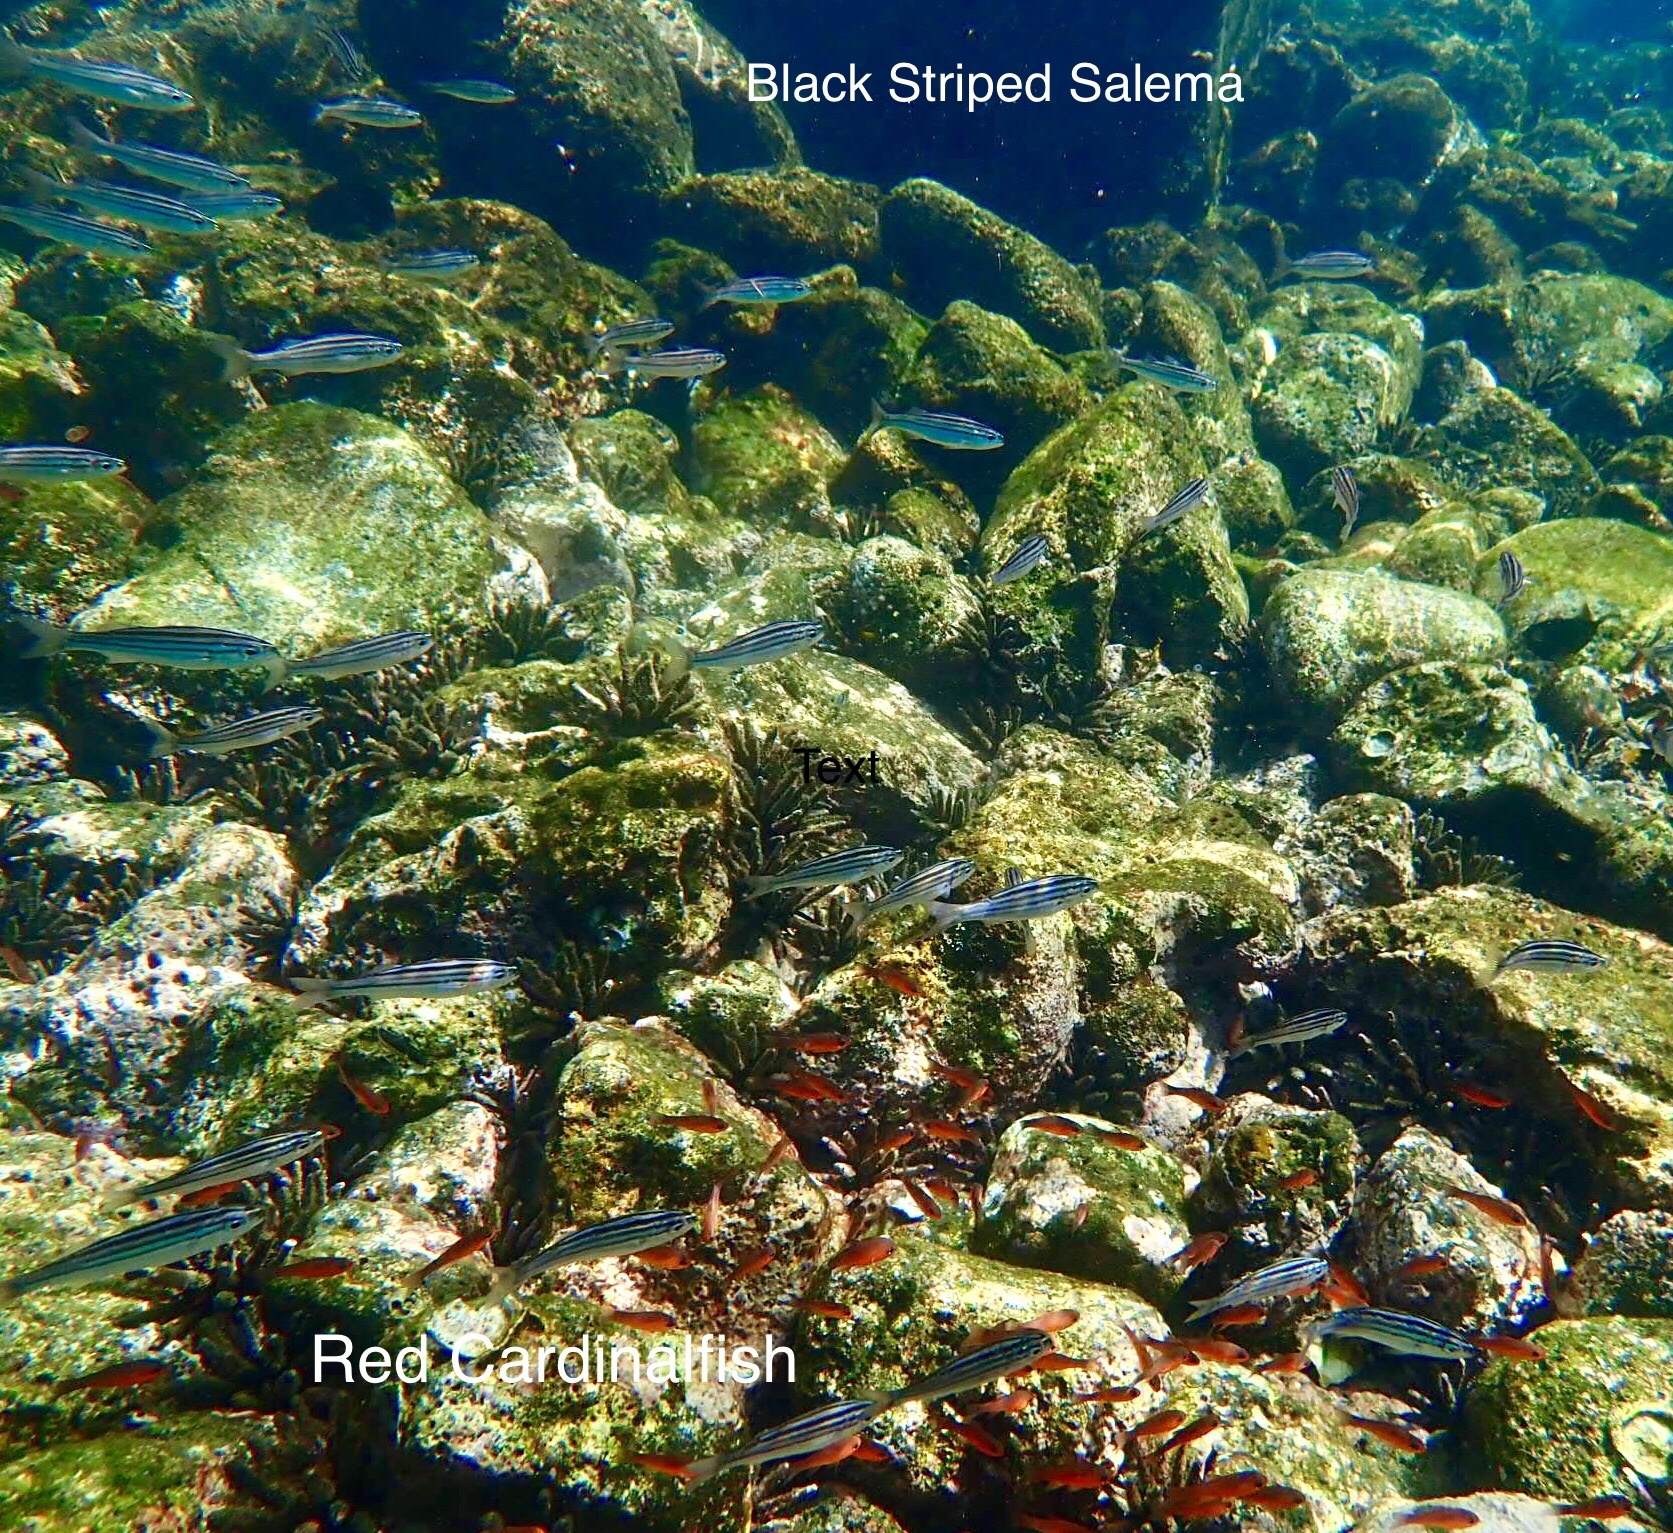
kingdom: Animalia
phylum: Chordata
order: Perciformes
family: Haemulidae
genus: Xenocys
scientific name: Xenocys jessiae
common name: Black-striped salema
